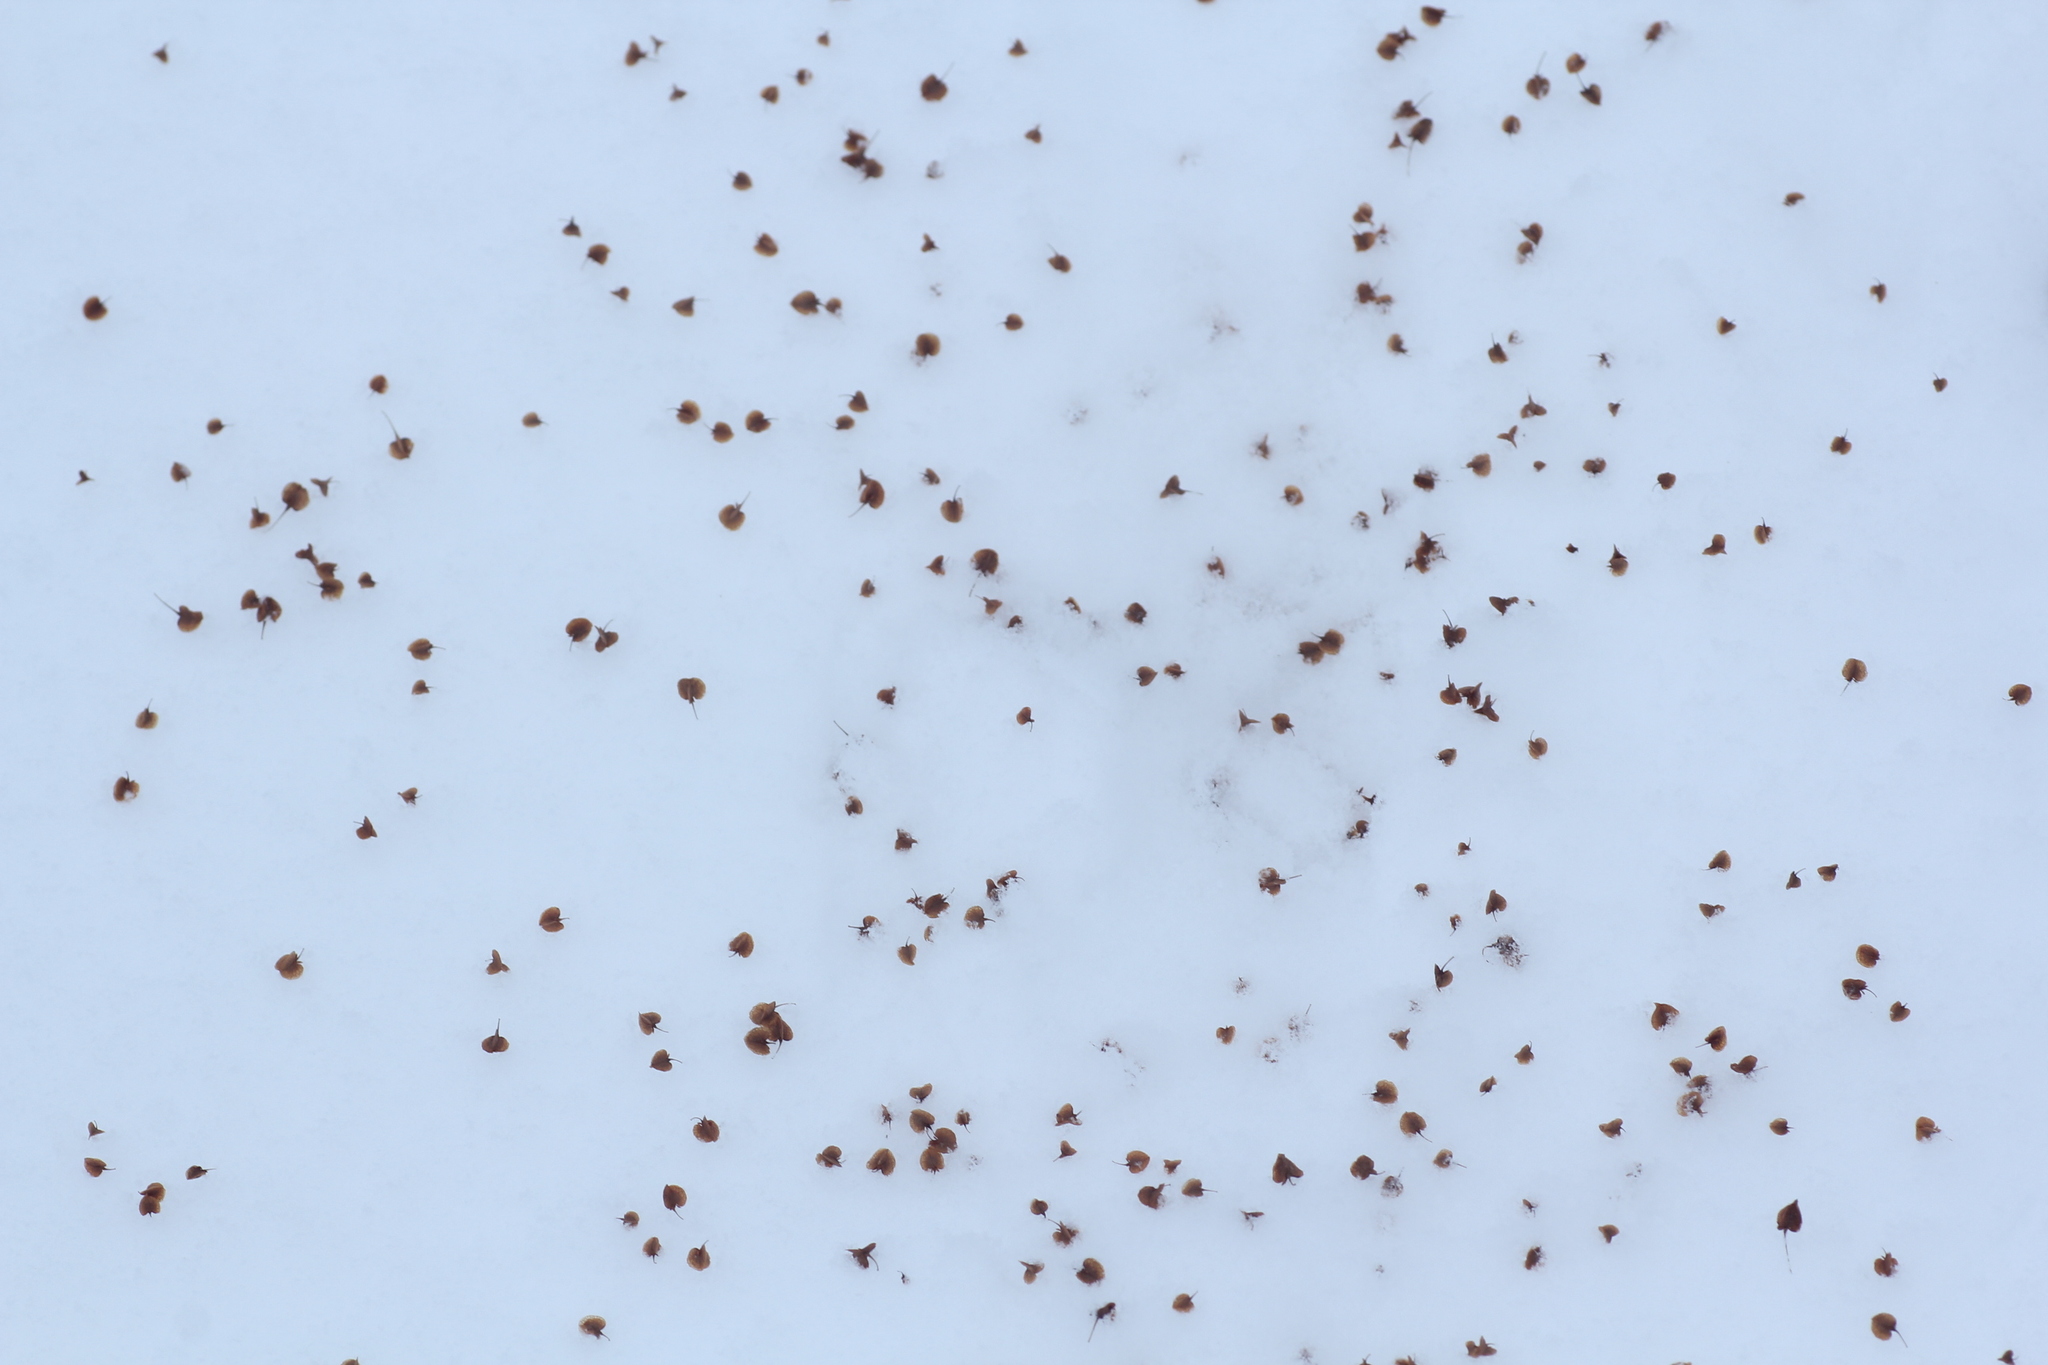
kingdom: Plantae
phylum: Tracheophyta
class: Magnoliopsida
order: Caryophyllales
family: Polygonaceae
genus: Rumex
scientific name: Rumex aquaticus
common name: Scottish dock
